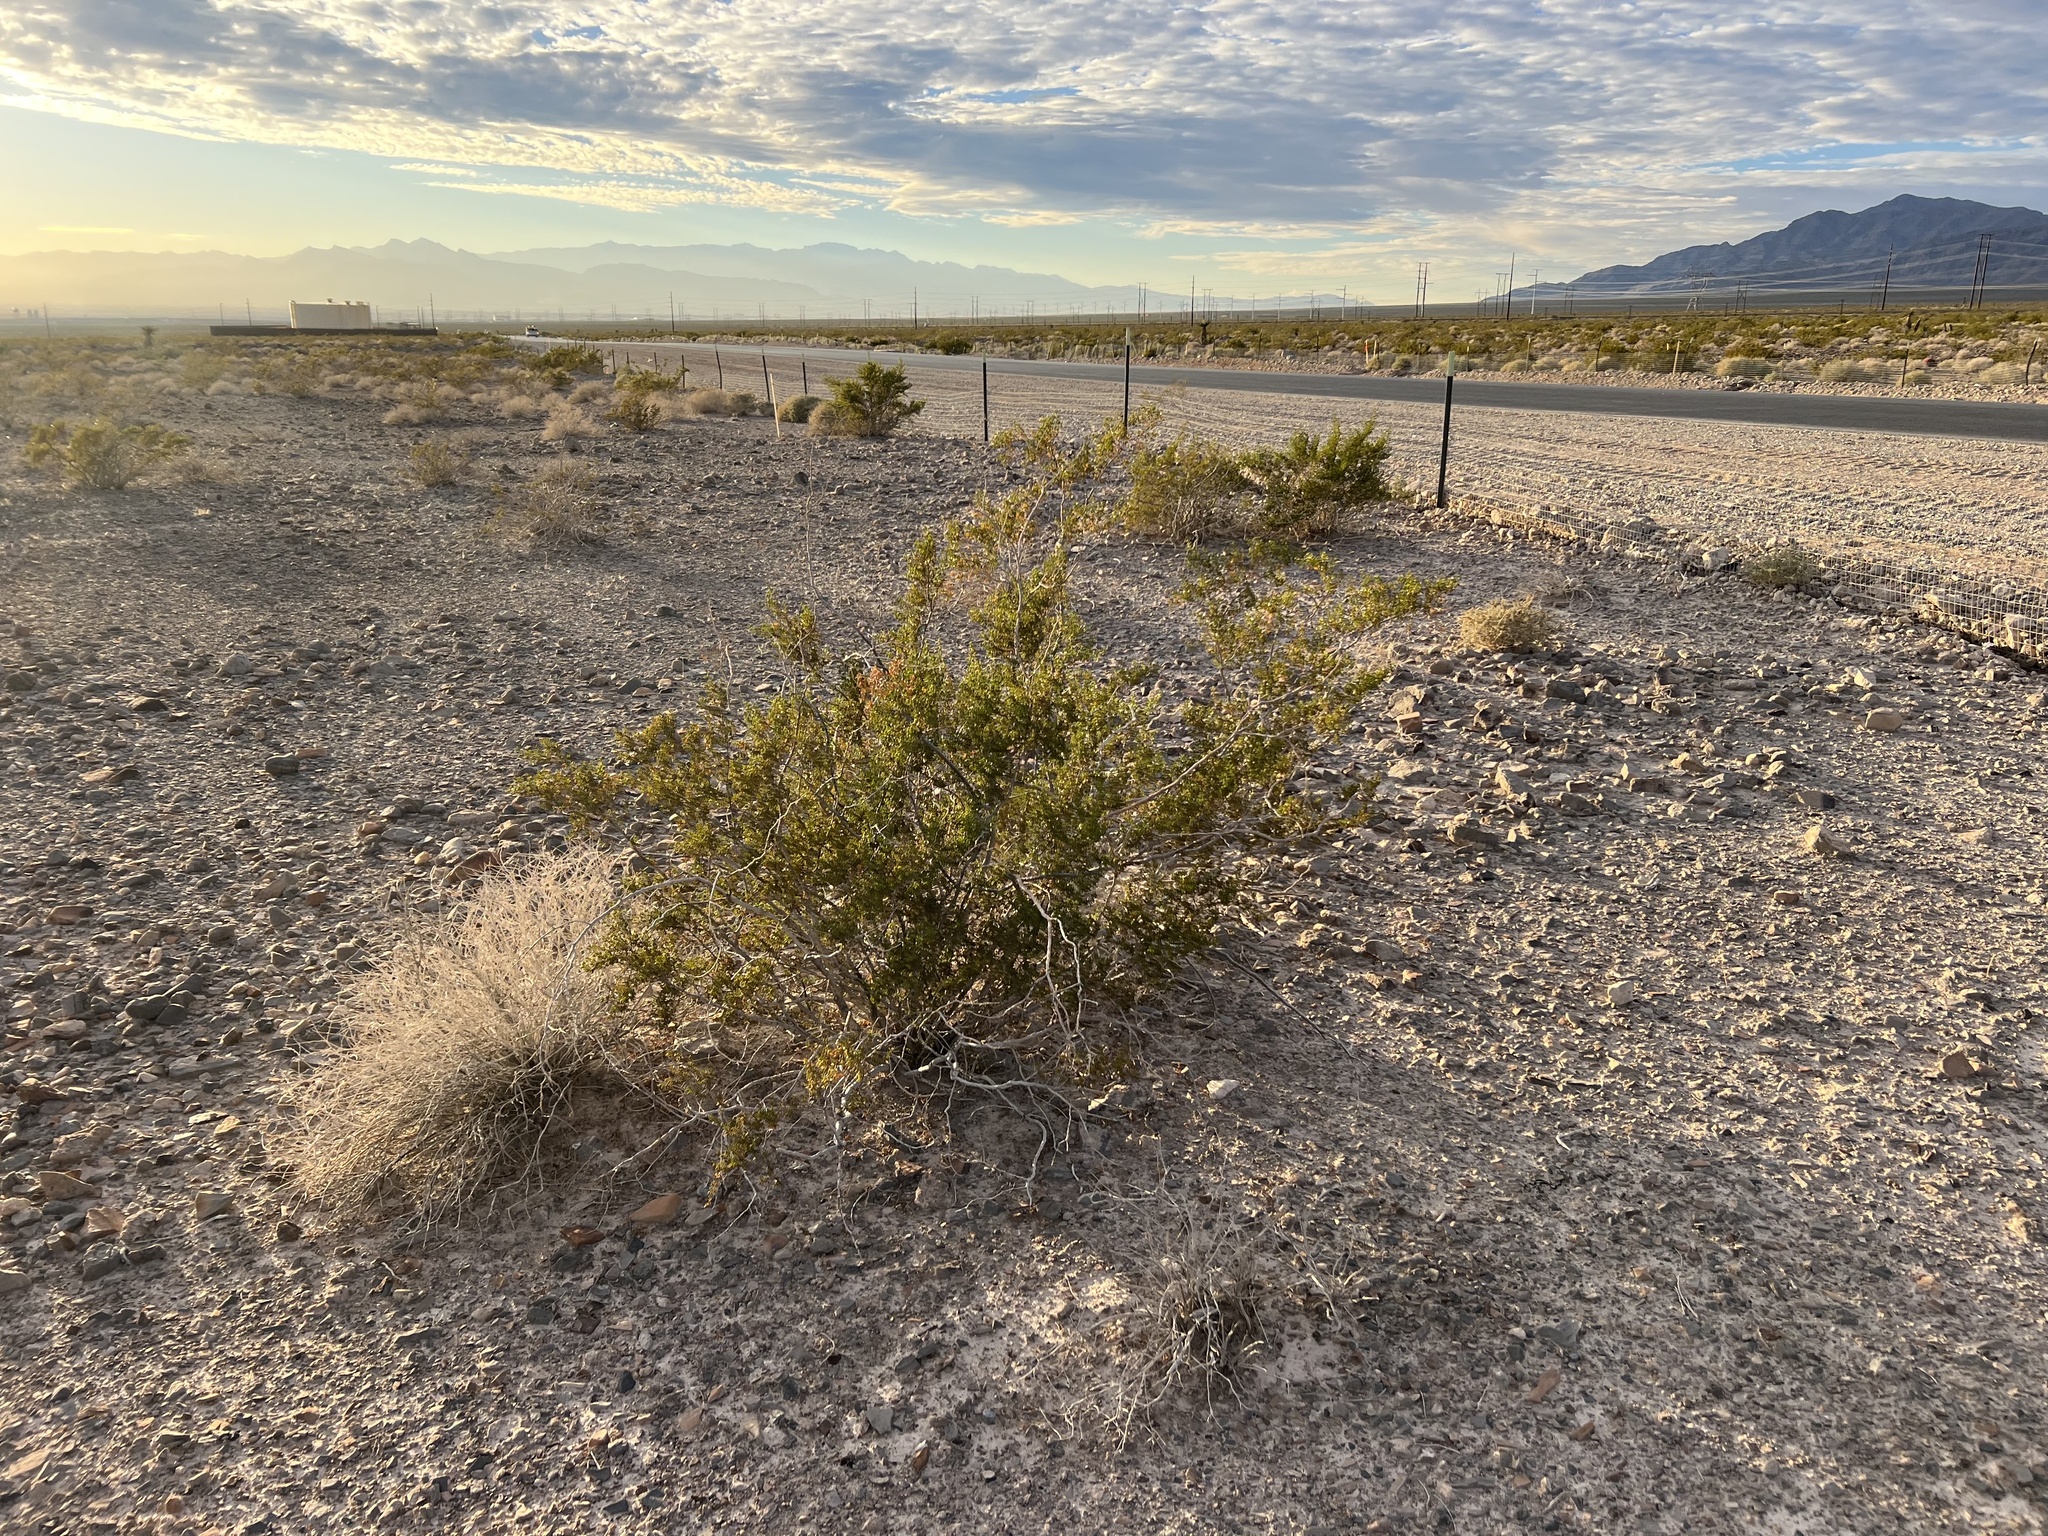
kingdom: Plantae
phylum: Tracheophyta
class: Magnoliopsida
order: Zygophyllales
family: Zygophyllaceae
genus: Larrea
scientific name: Larrea tridentata
